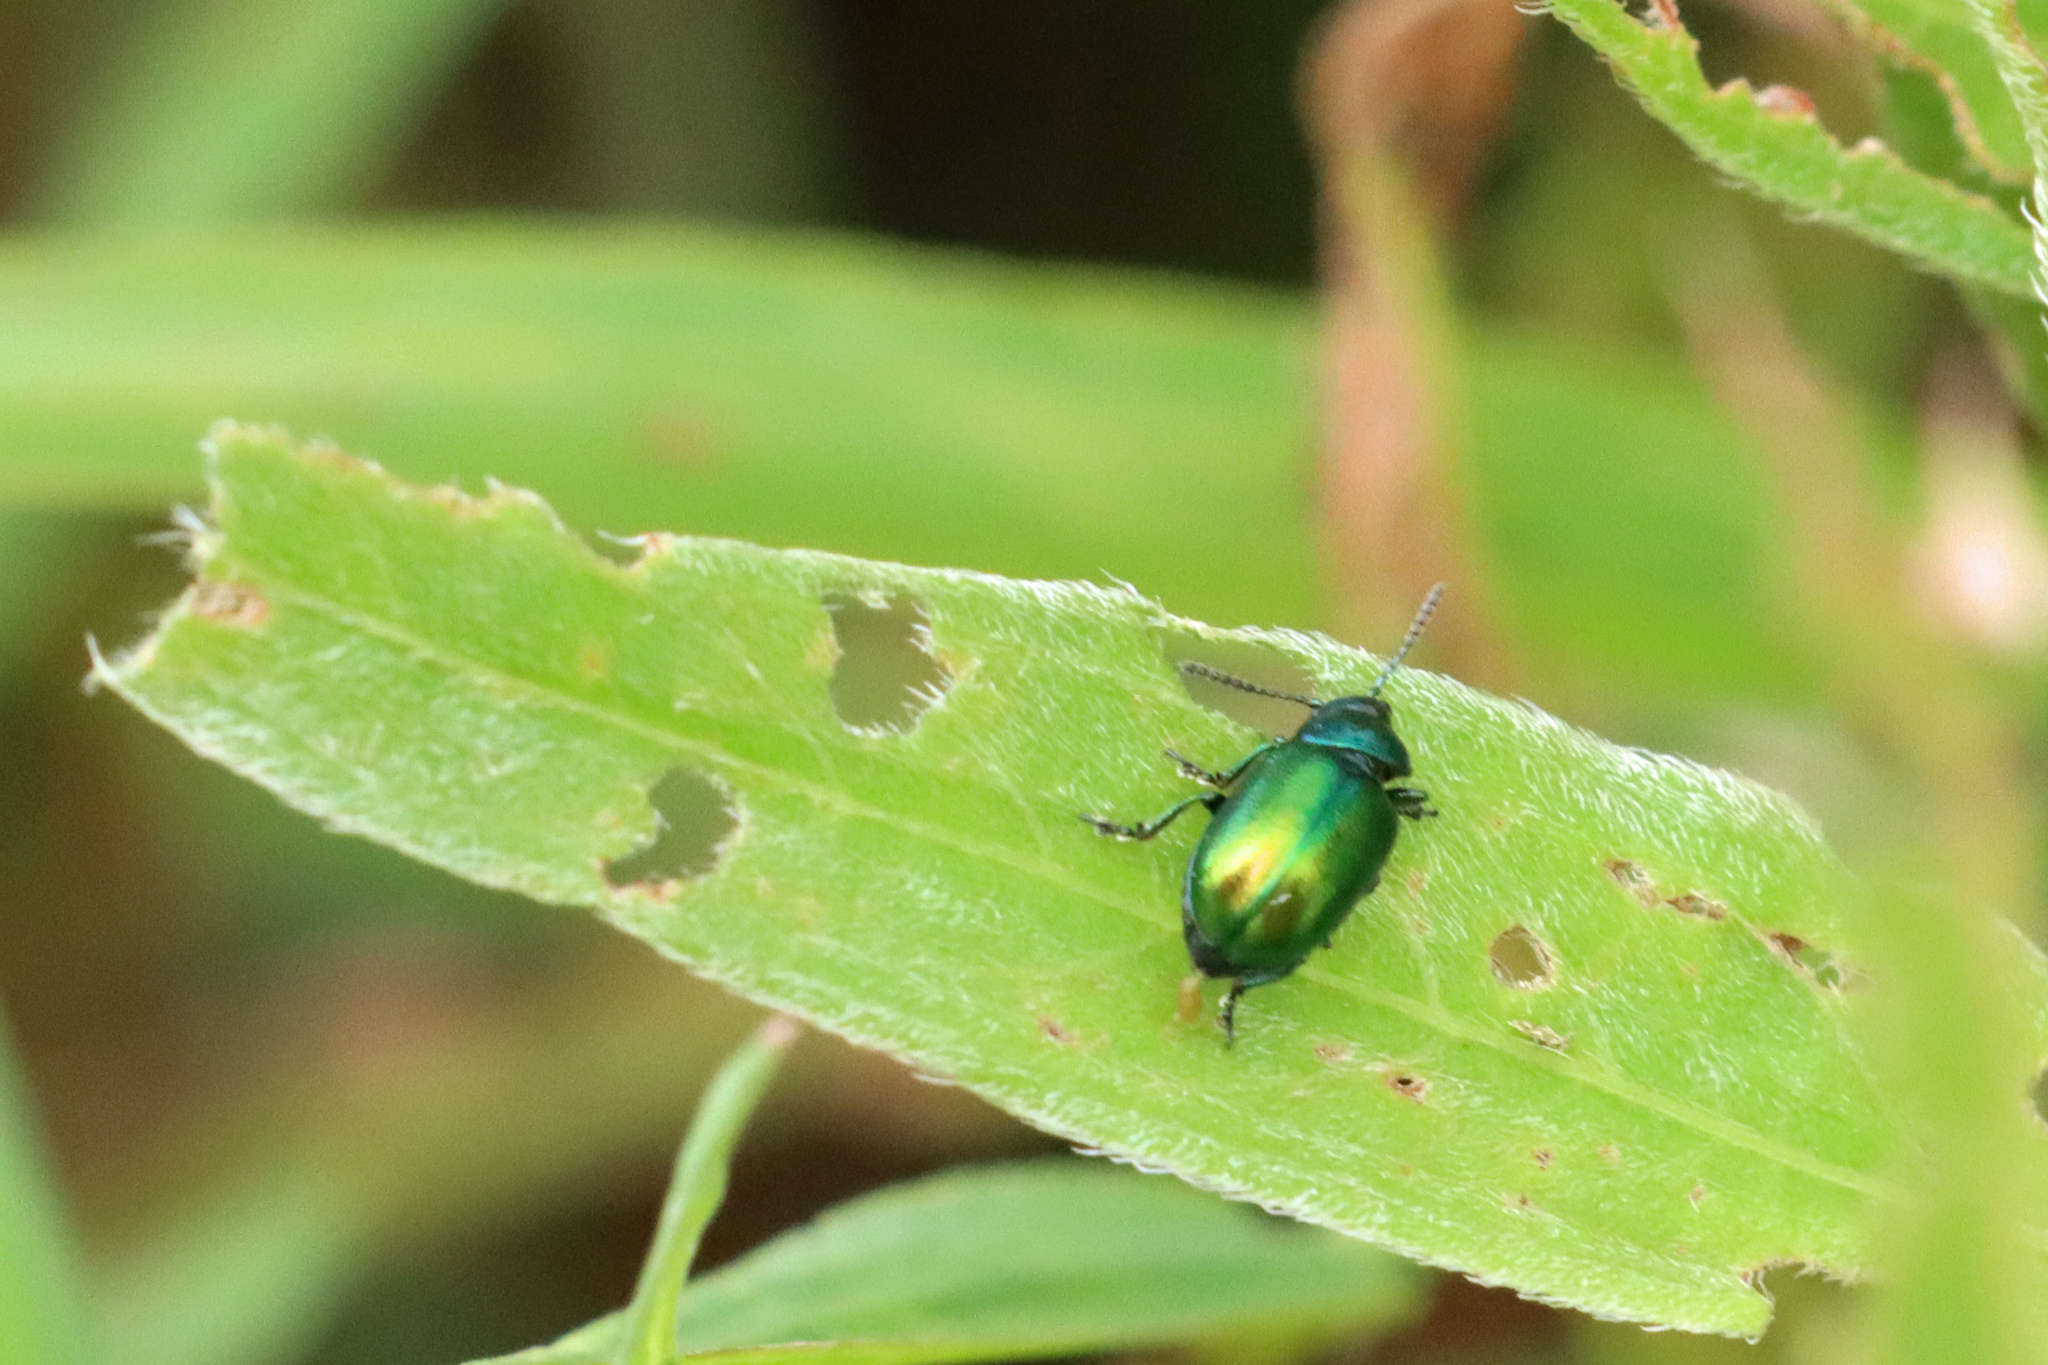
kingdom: Animalia
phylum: Arthropoda
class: Insecta
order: Coleoptera
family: Chrysomelidae
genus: Gastrophysa
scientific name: Gastrophysa viridula
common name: Green dock beetle
